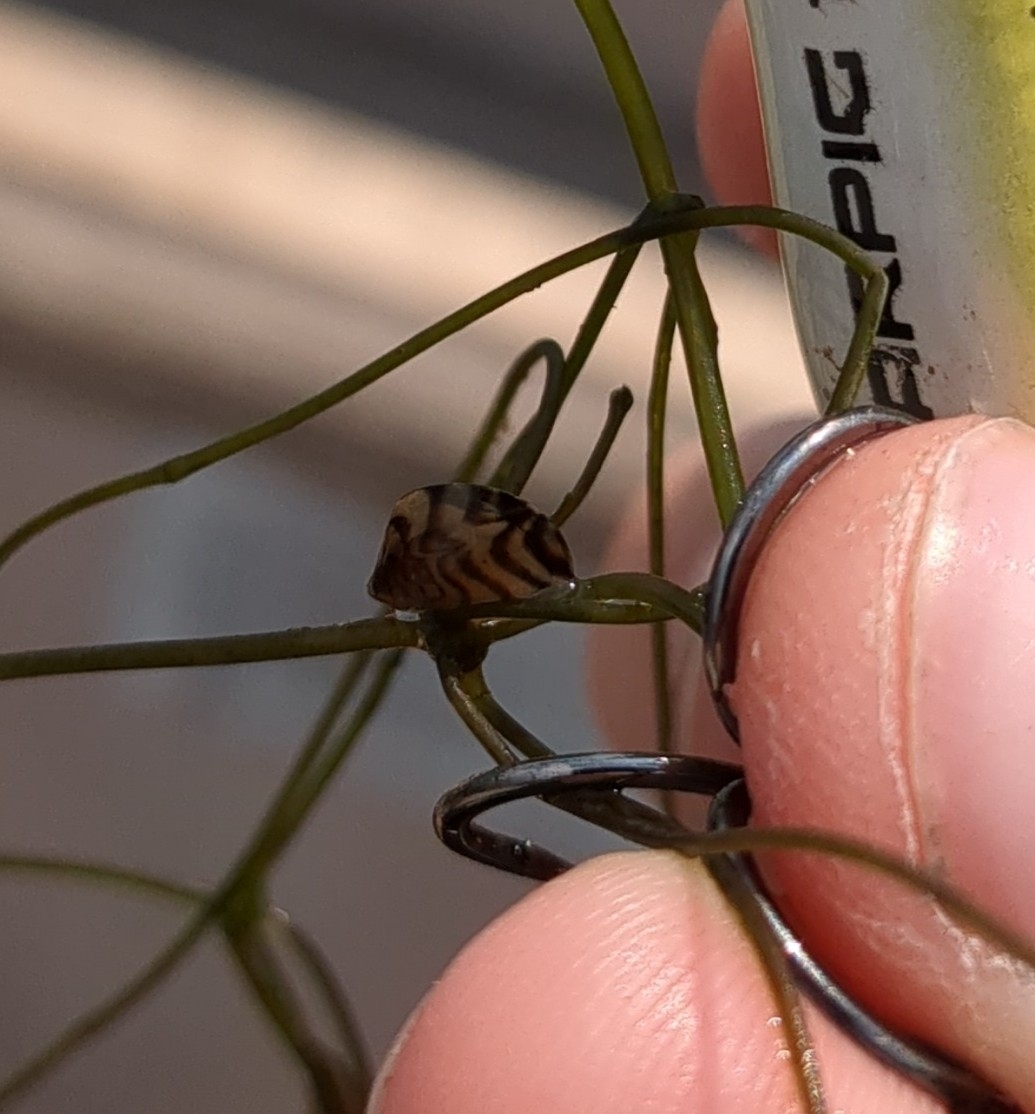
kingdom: Animalia
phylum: Mollusca
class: Bivalvia
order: Myida
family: Dreissenidae
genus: Dreissena
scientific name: Dreissena polymorpha
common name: Zebra mussel
